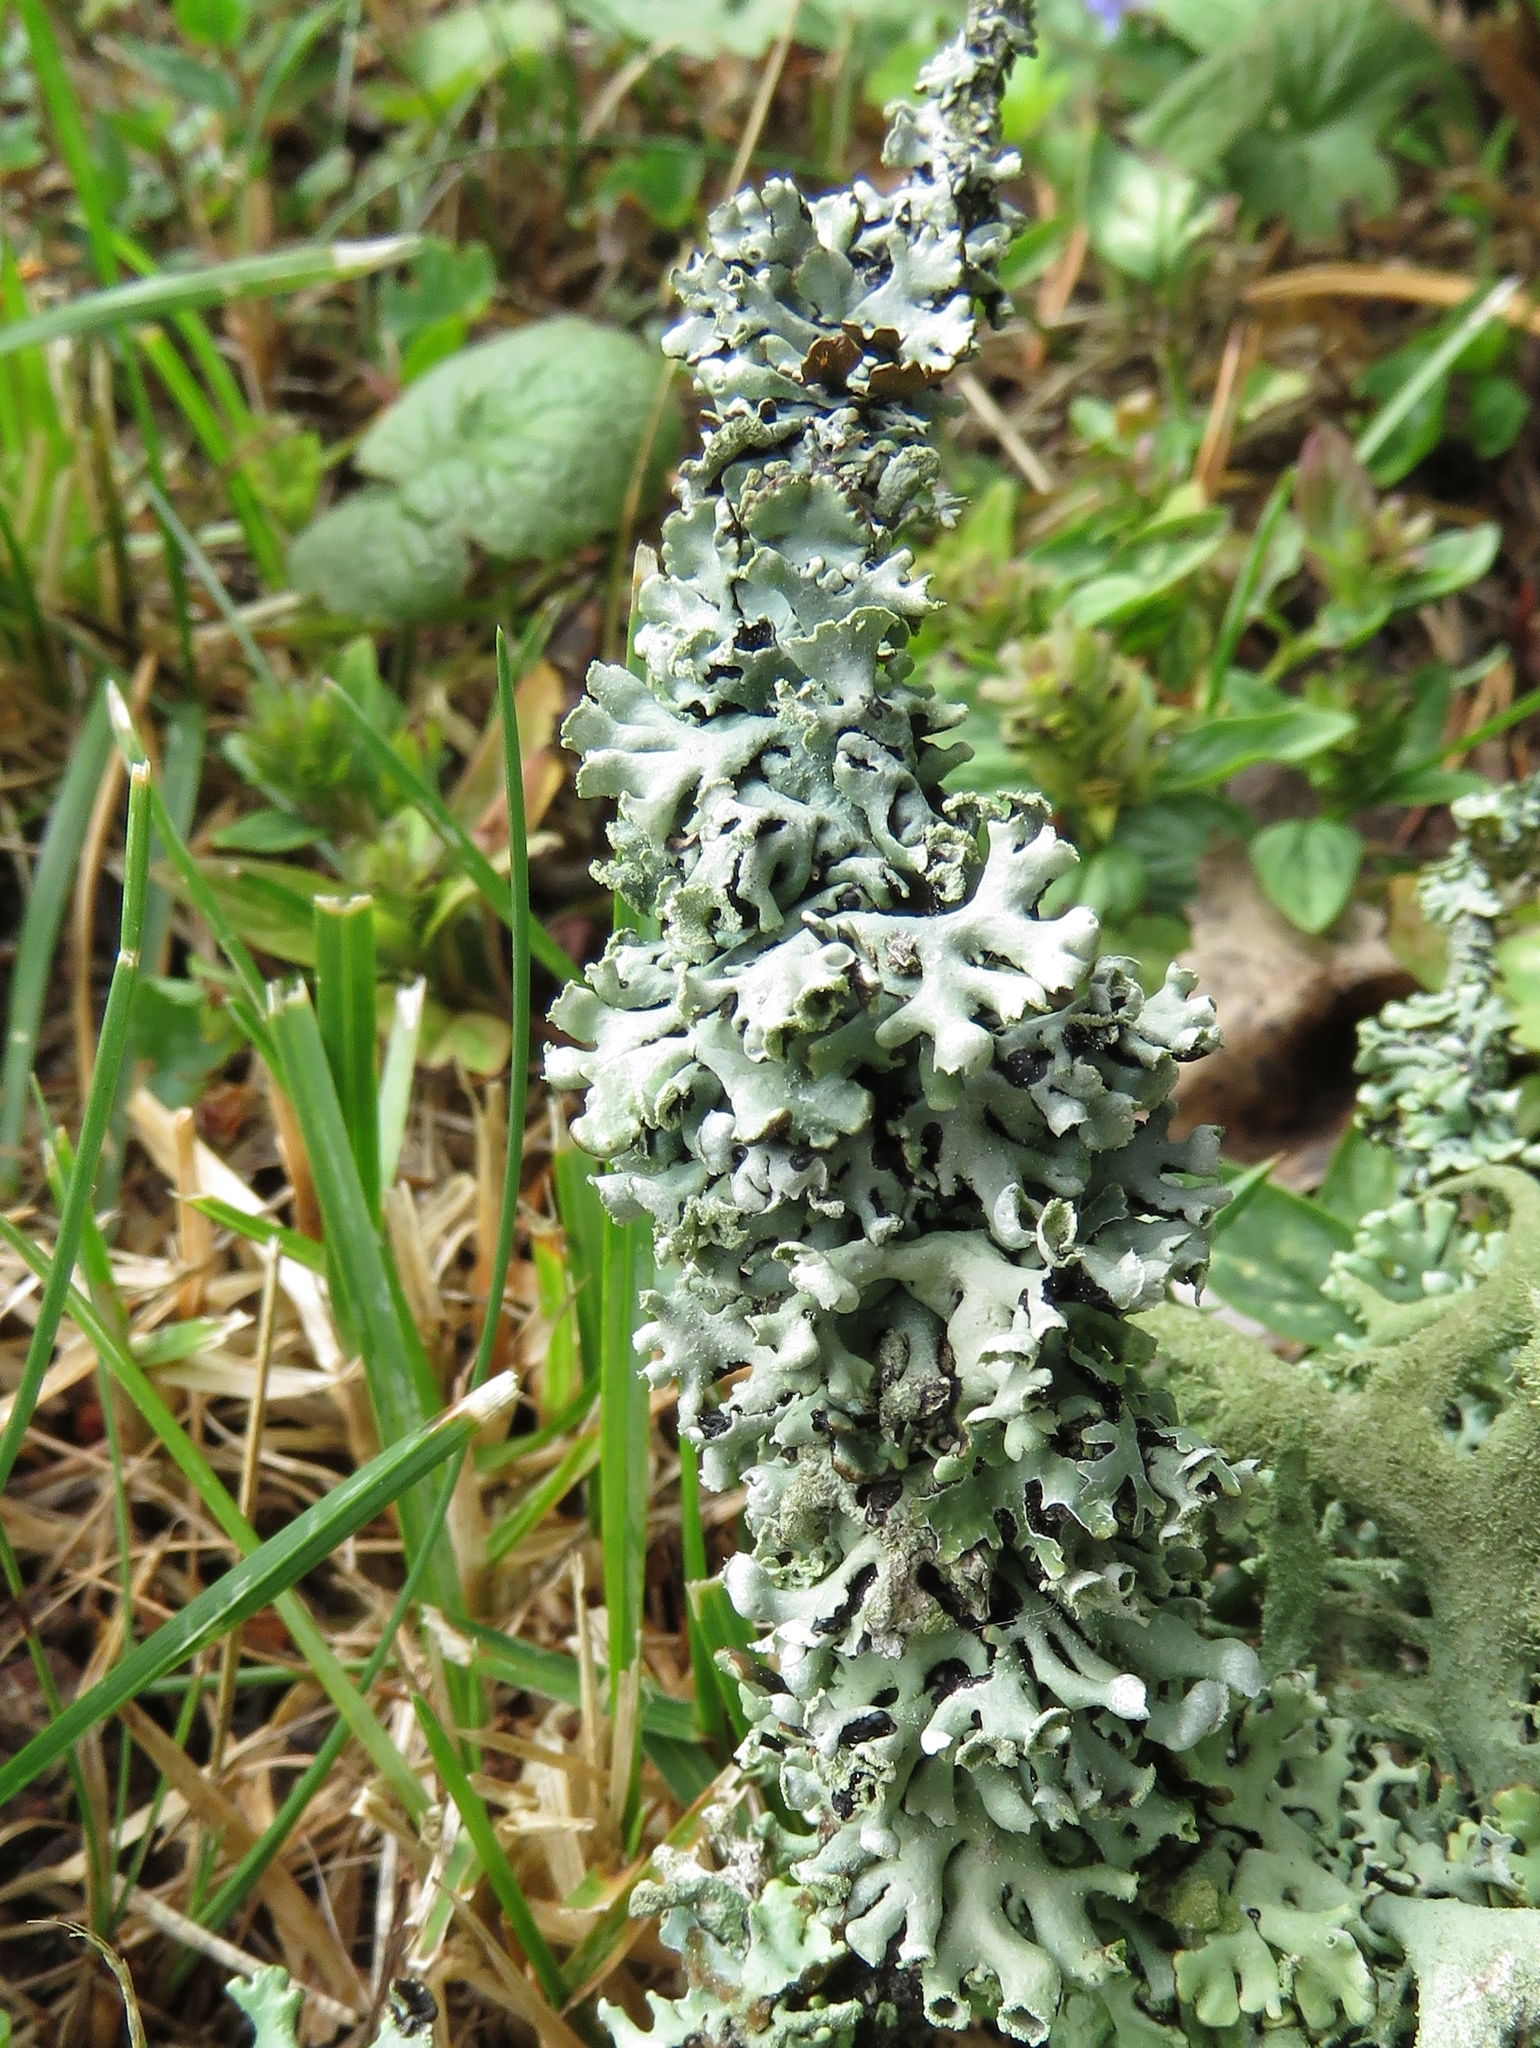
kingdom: Fungi
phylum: Ascomycota
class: Lecanoromycetes
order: Lecanorales
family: Parmeliaceae
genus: Hypogymnia
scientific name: Hypogymnia physodes
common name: Dark crottle
